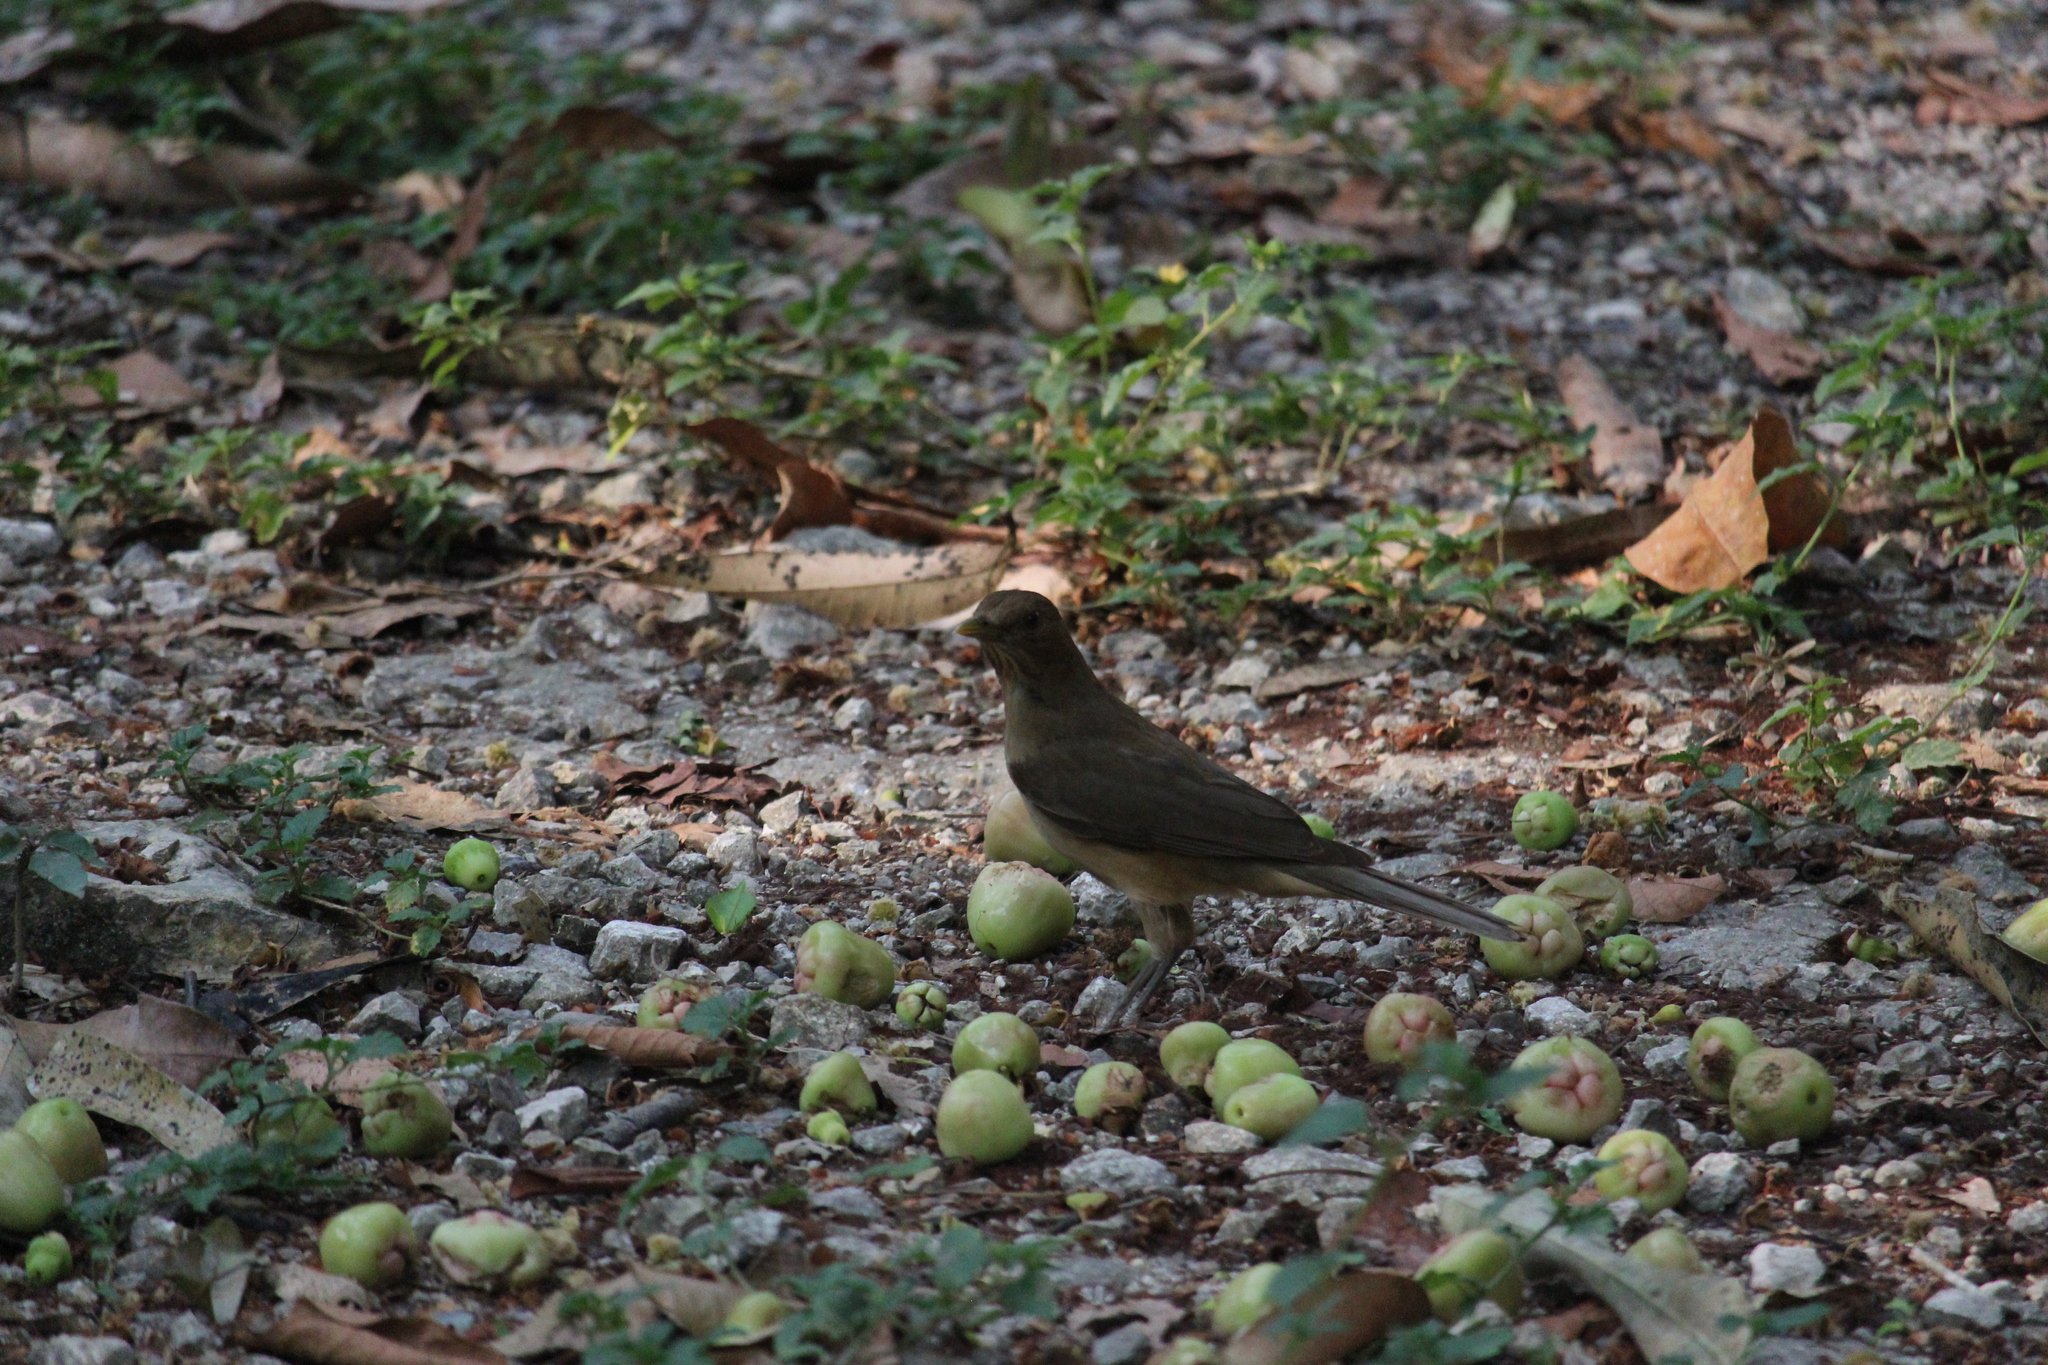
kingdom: Animalia
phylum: Chordata
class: Aves
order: Passeriformes
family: Turdidae
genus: Turdus
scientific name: Turdus grayi
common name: Clay-colored thrush
